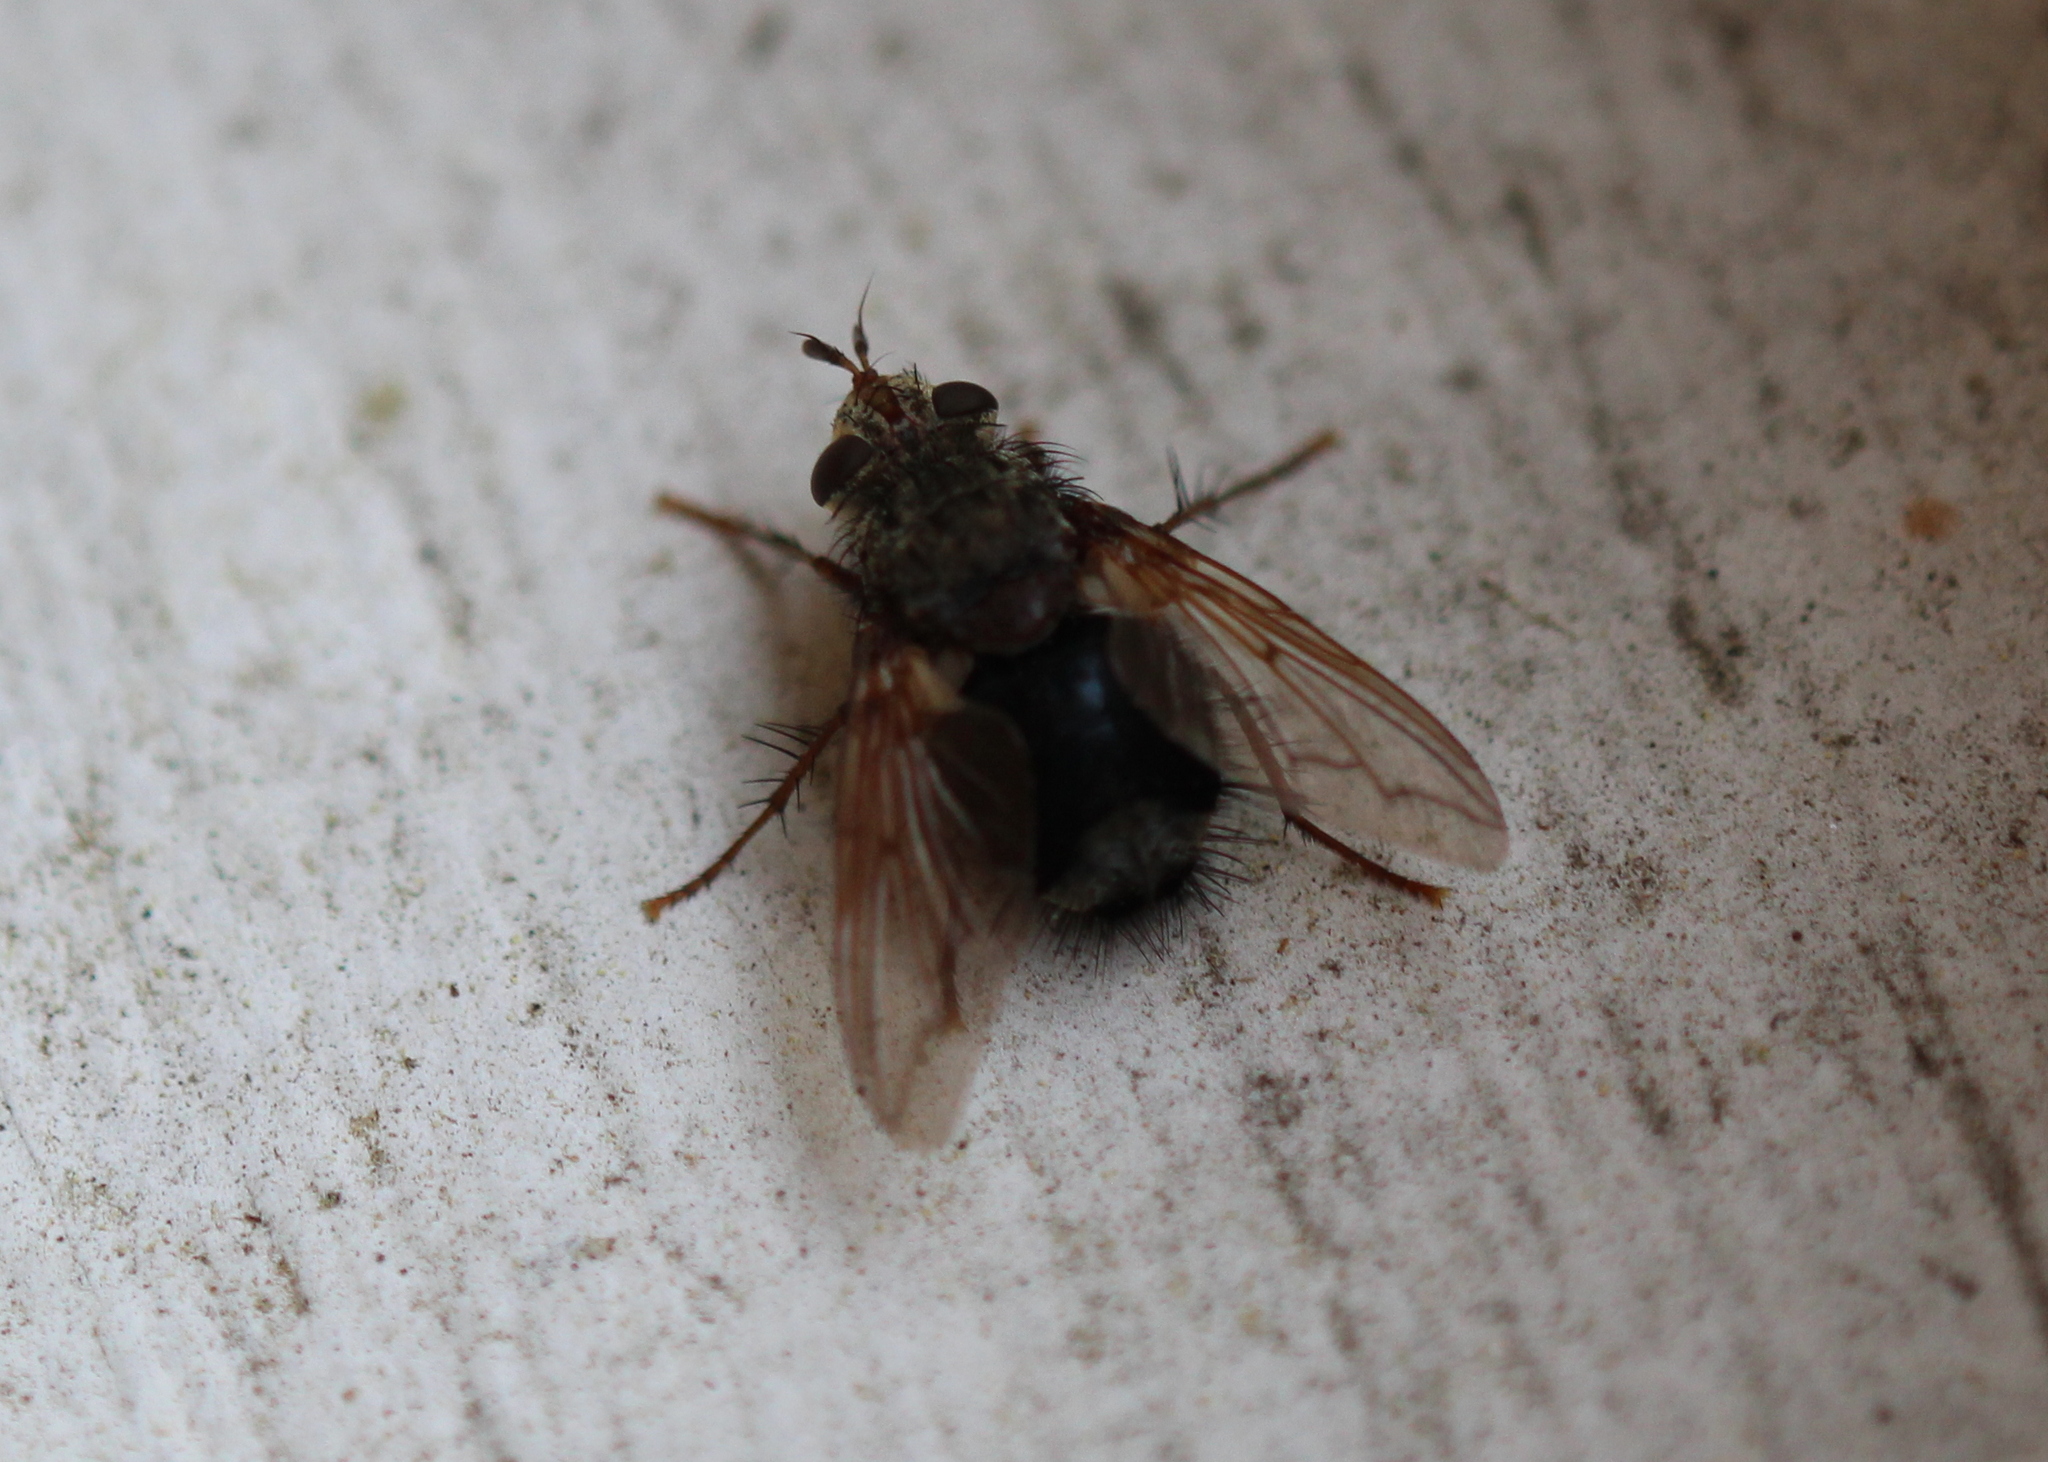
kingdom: Animalia
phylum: Arthropoda
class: Insecta
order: Diptera
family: Tachinidae
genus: Epalpus
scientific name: Epalpus signifer
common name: Early tachinid fly
